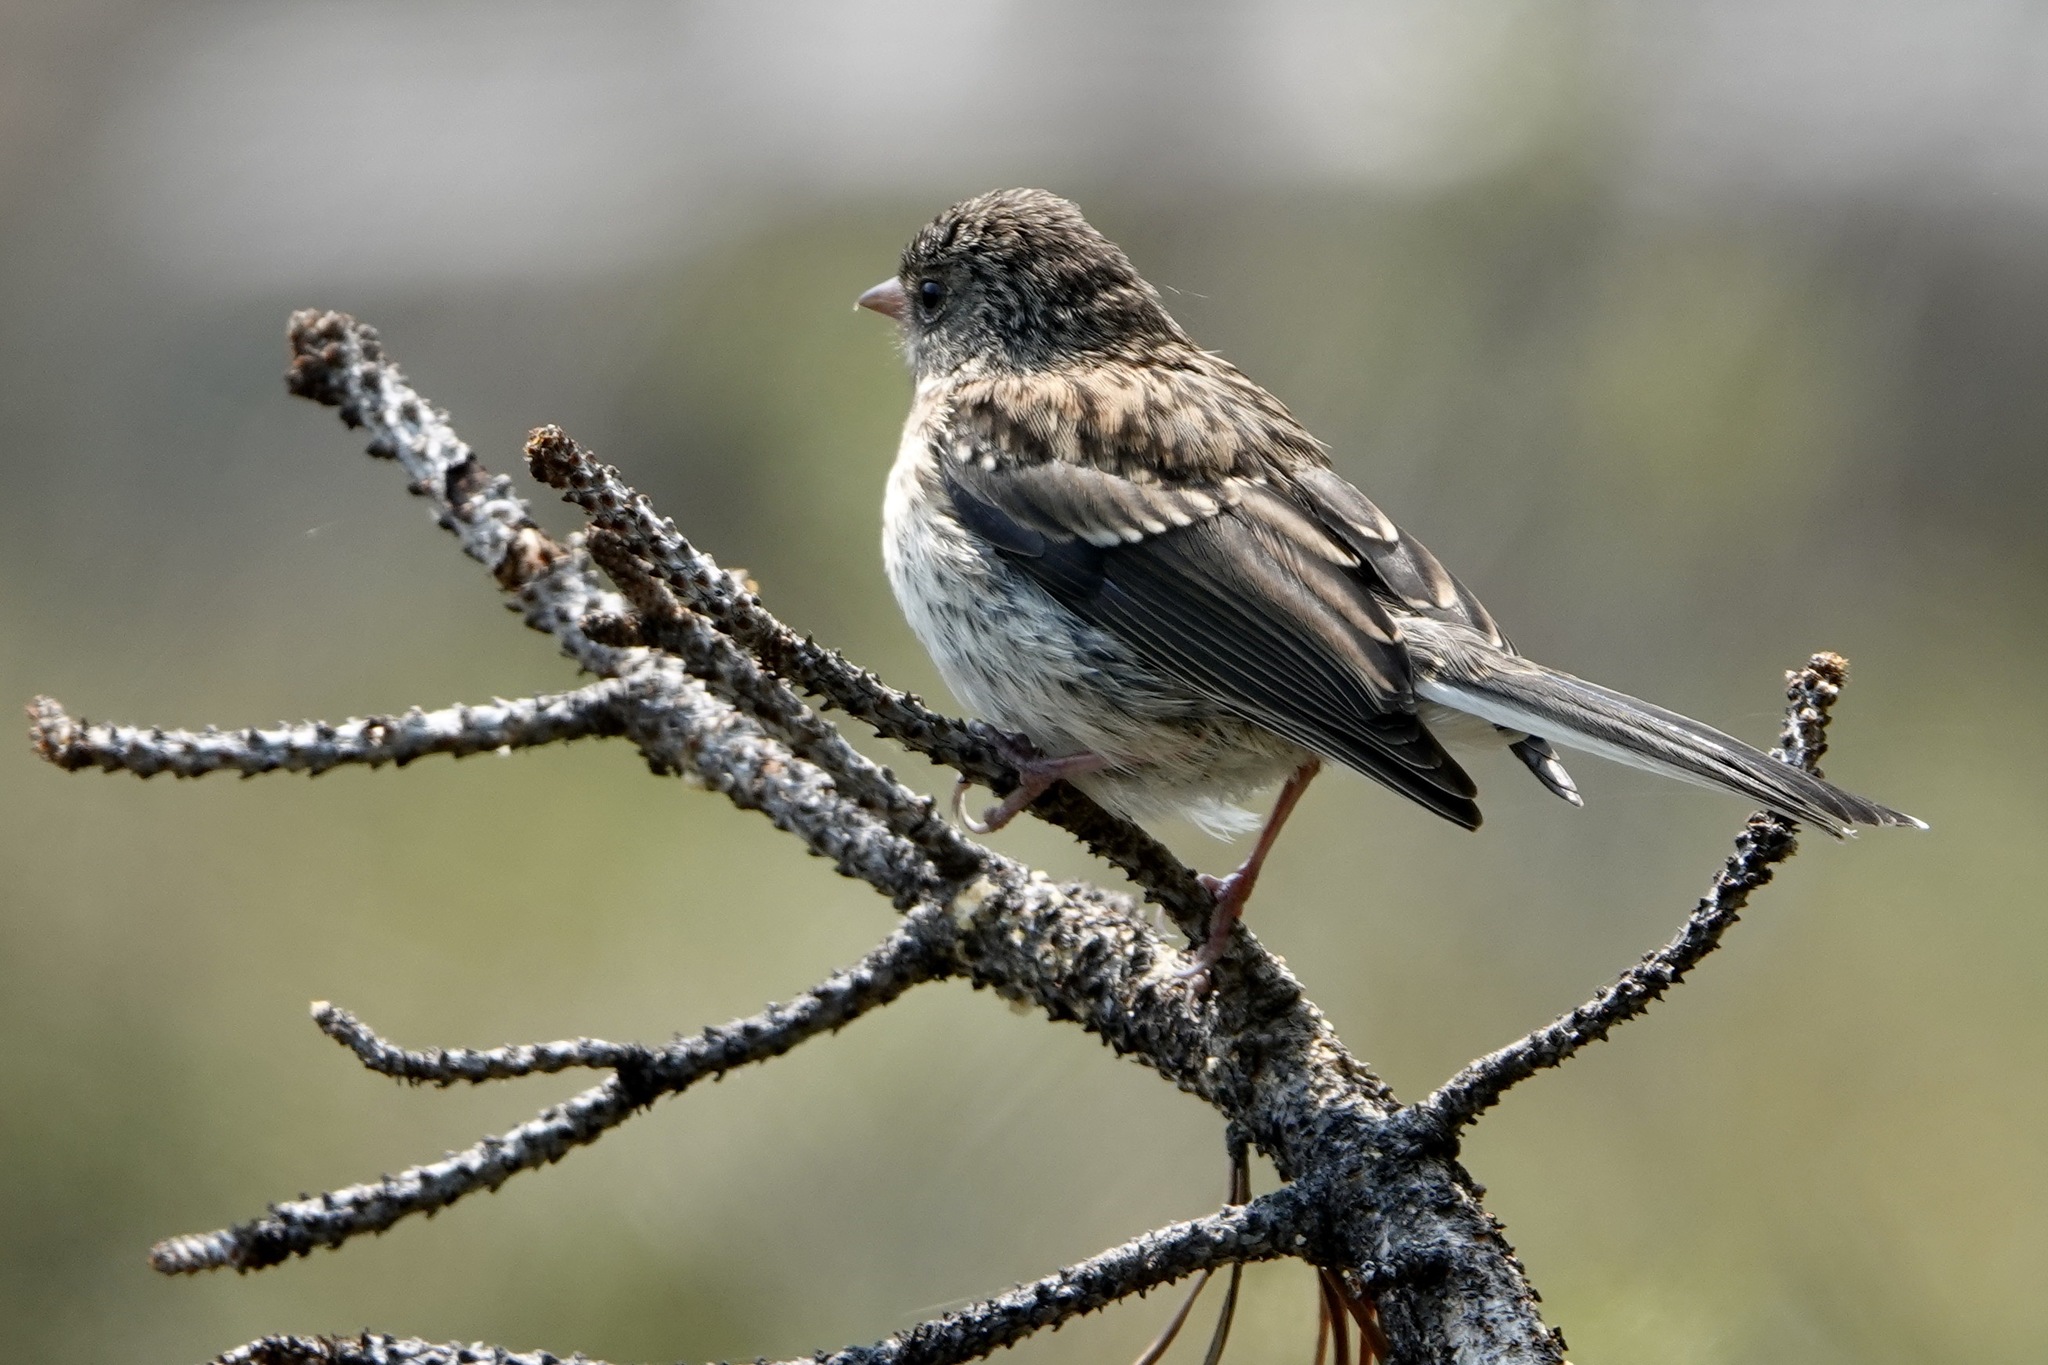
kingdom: Animalia
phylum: Chordata
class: Aves
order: Passeriformes
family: Passerellidae
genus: Junco
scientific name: Junco hyemalis
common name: Dark-eyed junco
